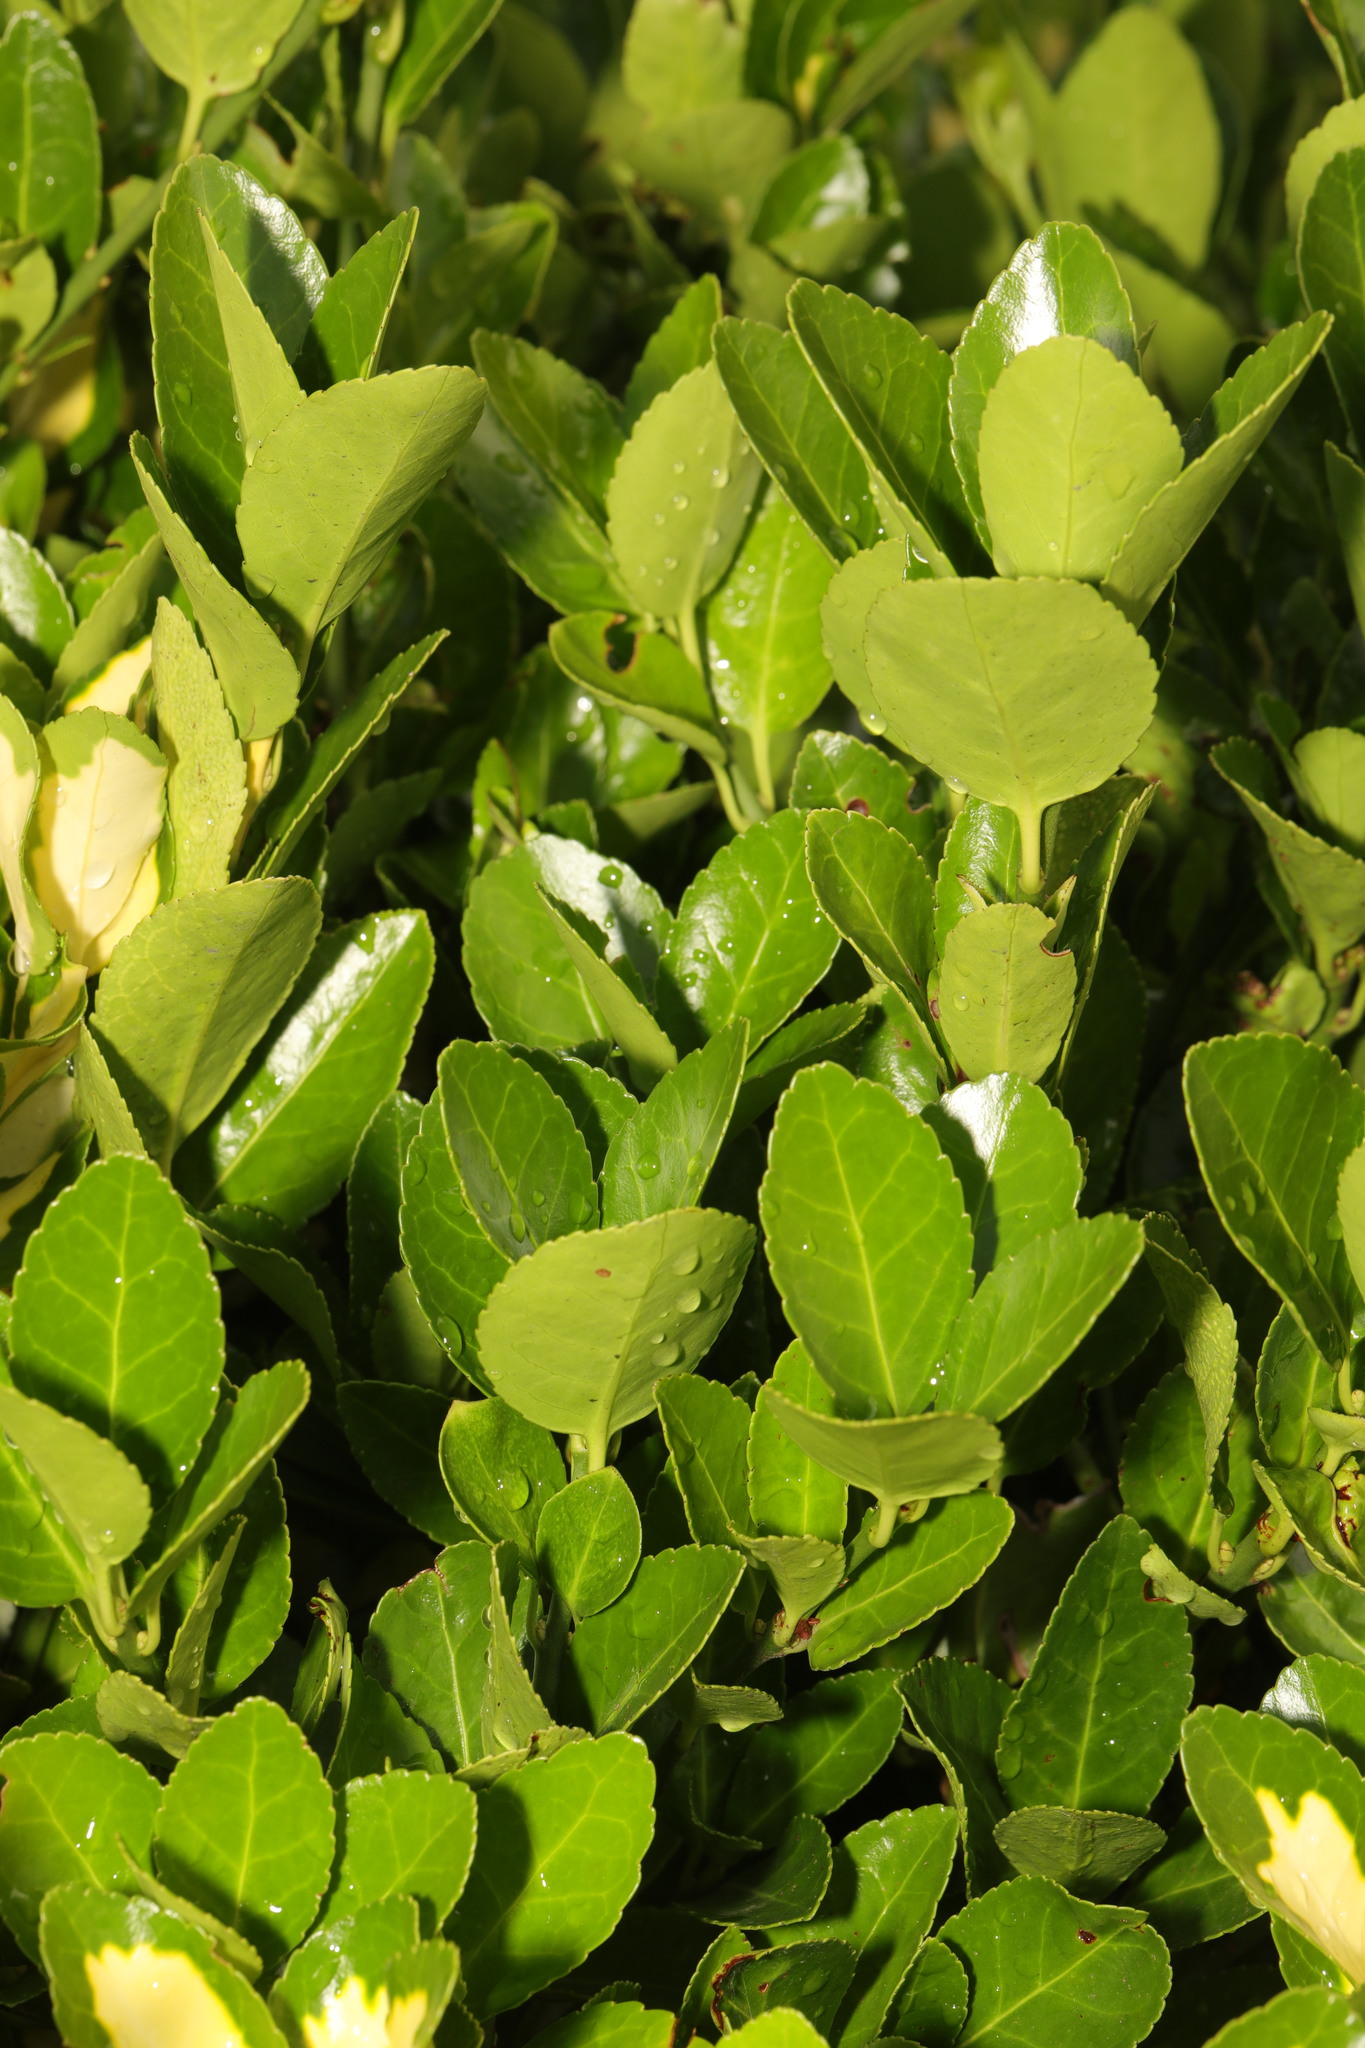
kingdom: Plantae
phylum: Tracheophyta
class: Magnoliopsida
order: Celastrales
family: Celastraceae
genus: Euonymus
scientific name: Euonymus japonicus
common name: Japanese spindletree
